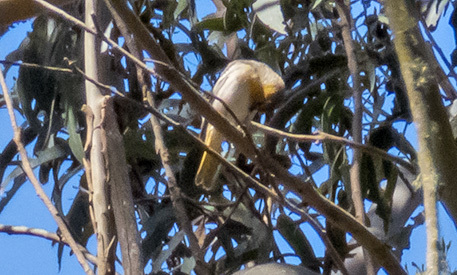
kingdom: Animalia
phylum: Chordata
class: Aves
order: Passeriformes
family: Icteridae
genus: Icterus
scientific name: Icterus bullockii
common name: Bullock's oriole
